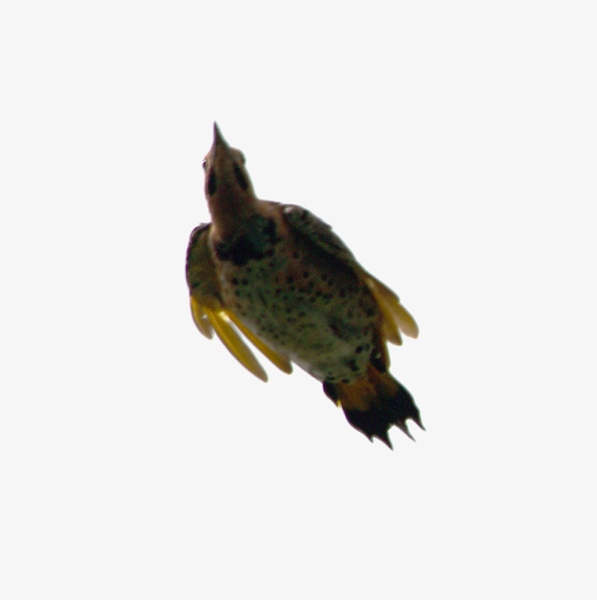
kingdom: Animalia
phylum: Chordata
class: Aves
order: Piciformes
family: Picidae
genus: Colaptes
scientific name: Colaptes auratus
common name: Northern flicker
